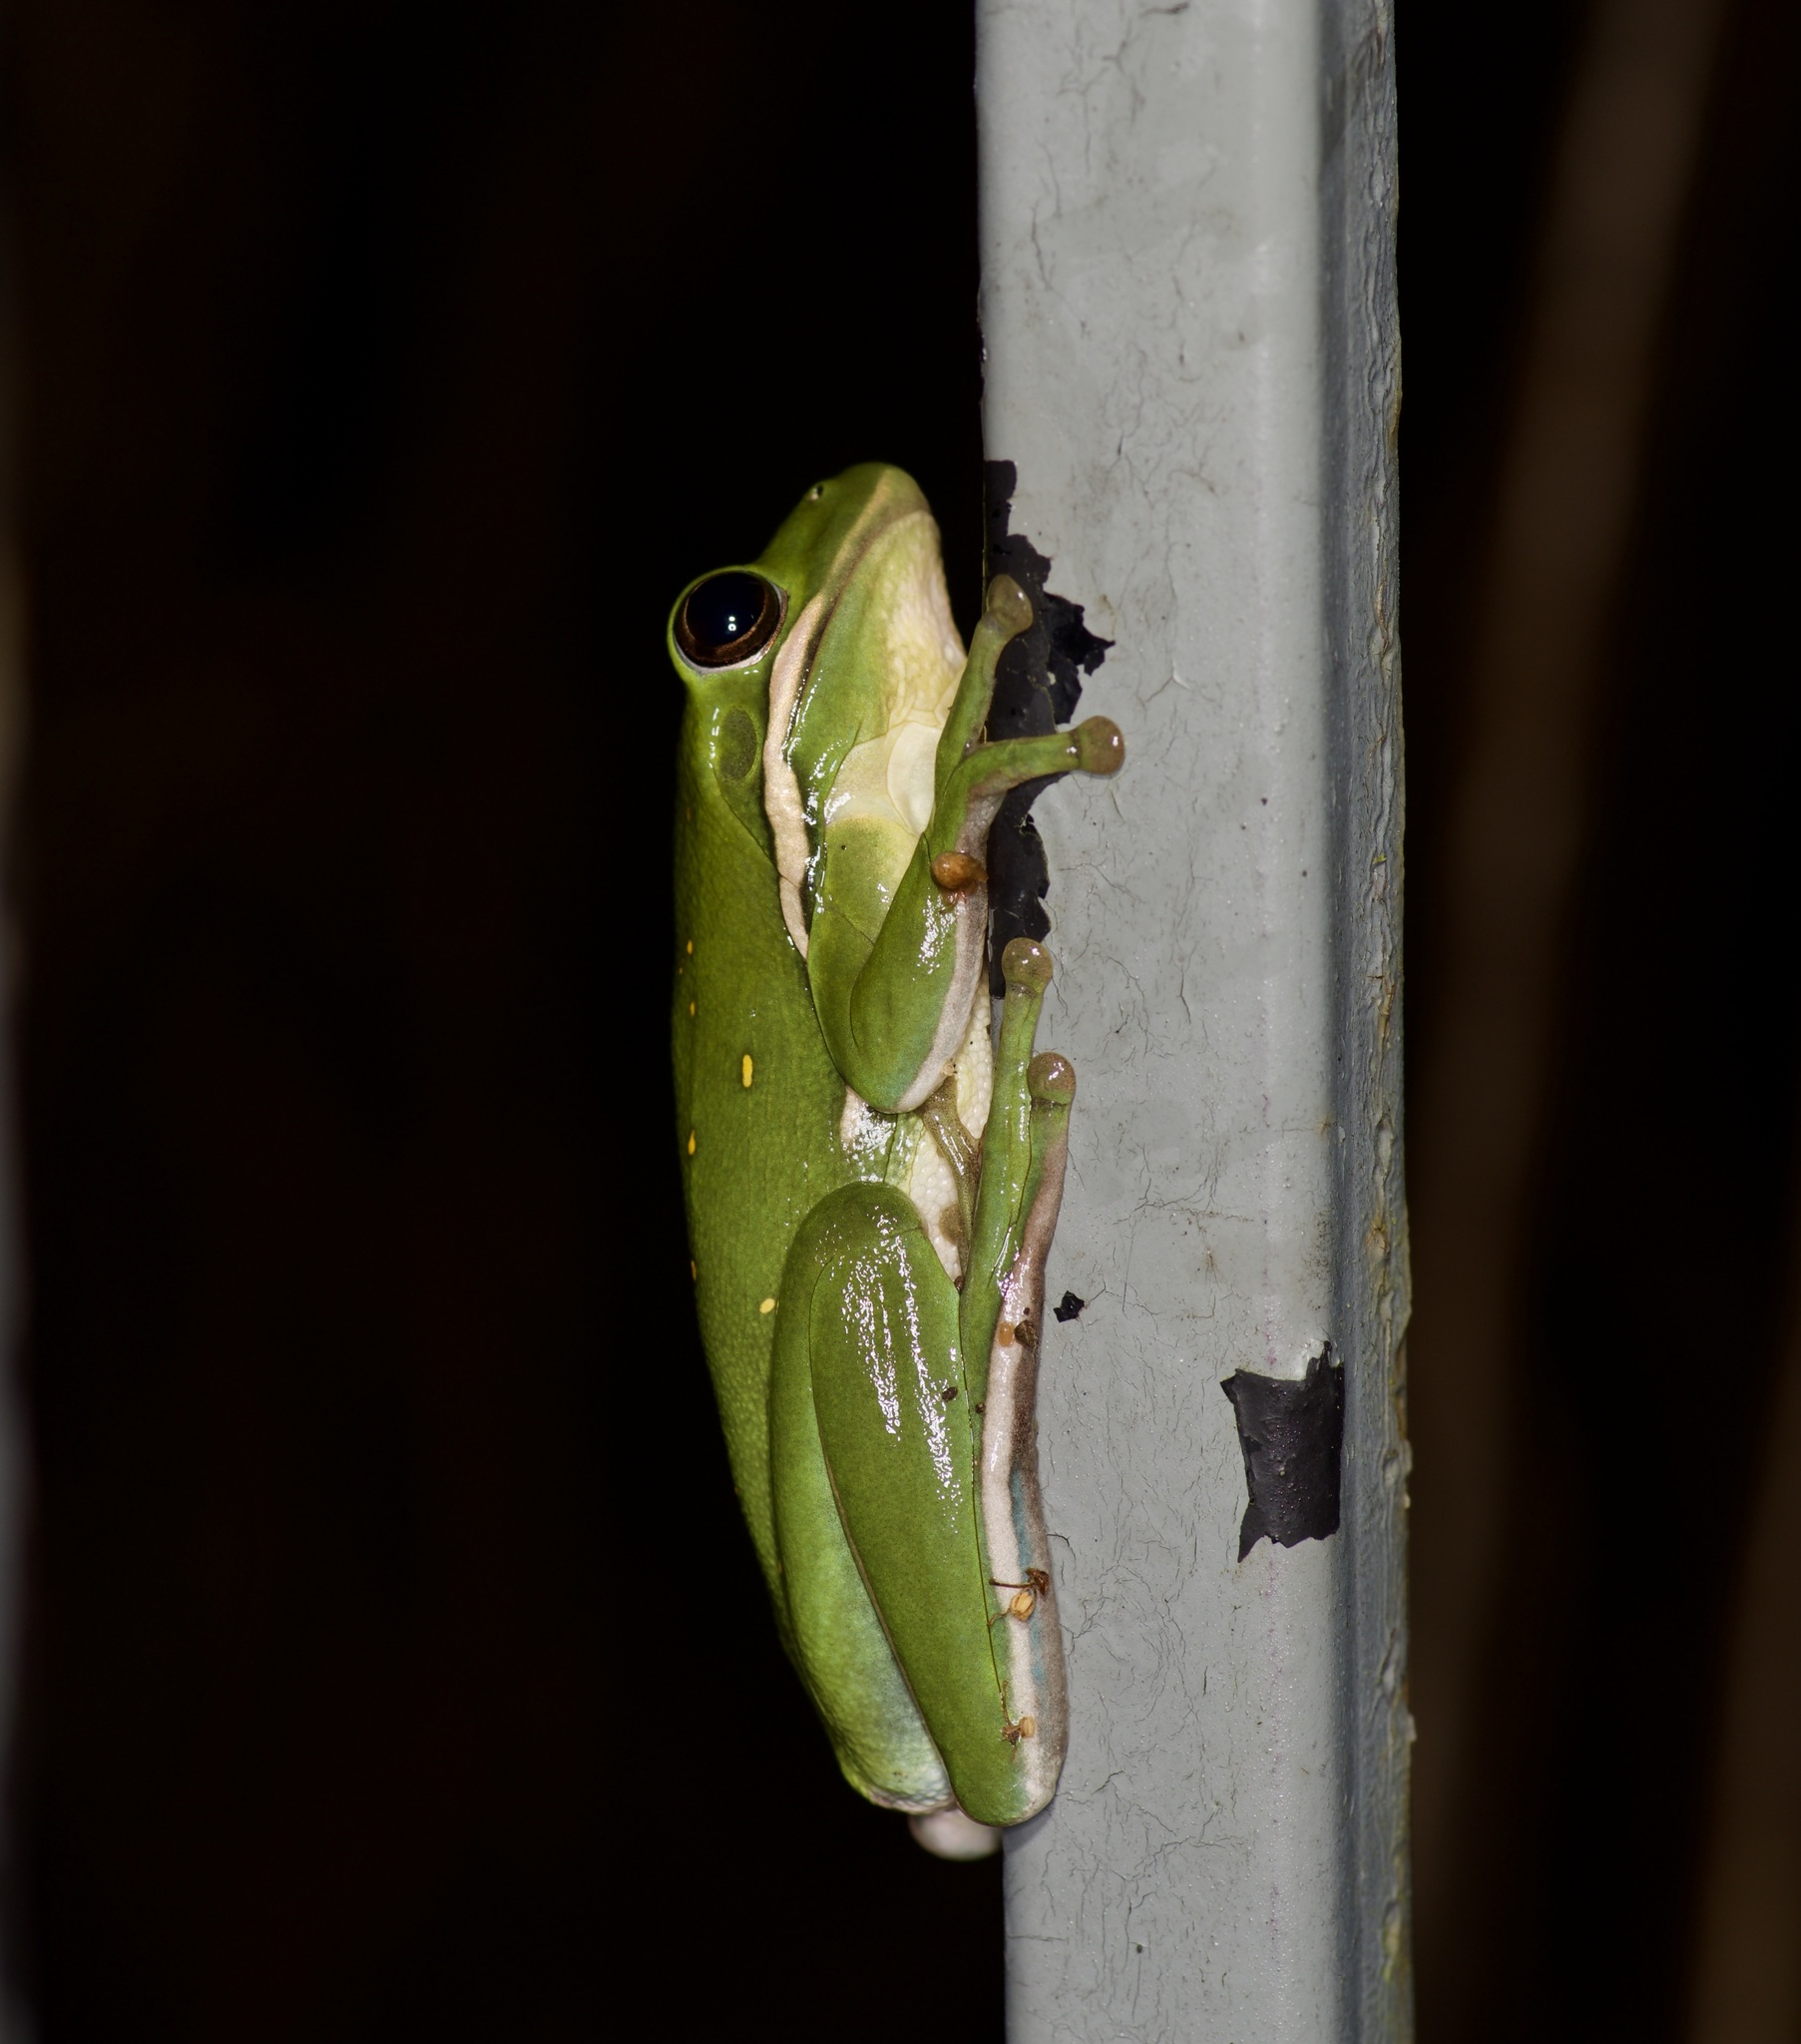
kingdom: Animalia
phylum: Chordata
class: Amphibia
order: Anura
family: Hylidae
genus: Dryophytes
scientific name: Dryophytes cinereus
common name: Green treefrog
